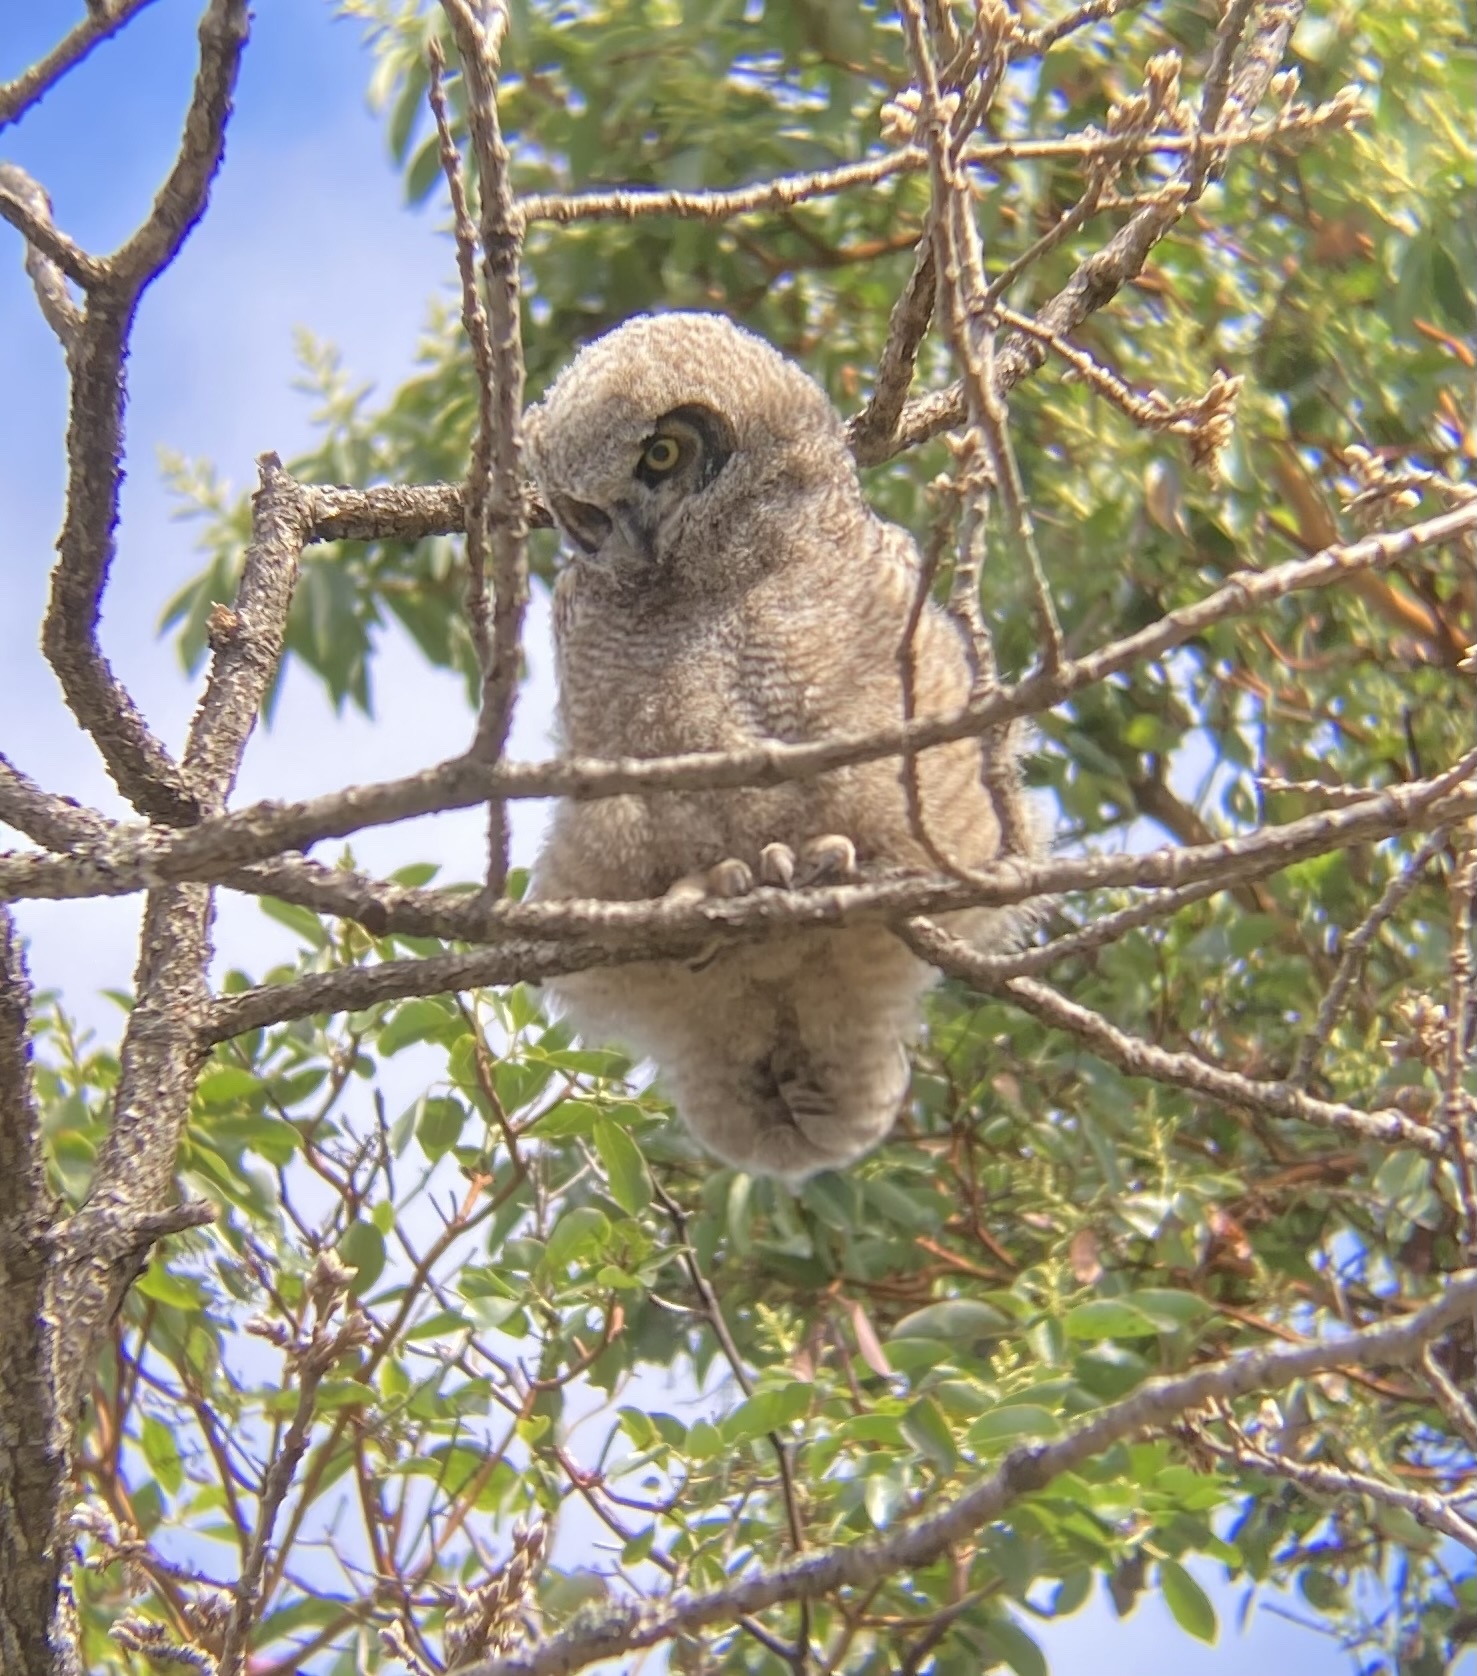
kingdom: Animalia
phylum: Chordata
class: Aves
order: Strigiformes
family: Strigidae
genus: Bubo
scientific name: Bubo virginianus
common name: Great horned owl
